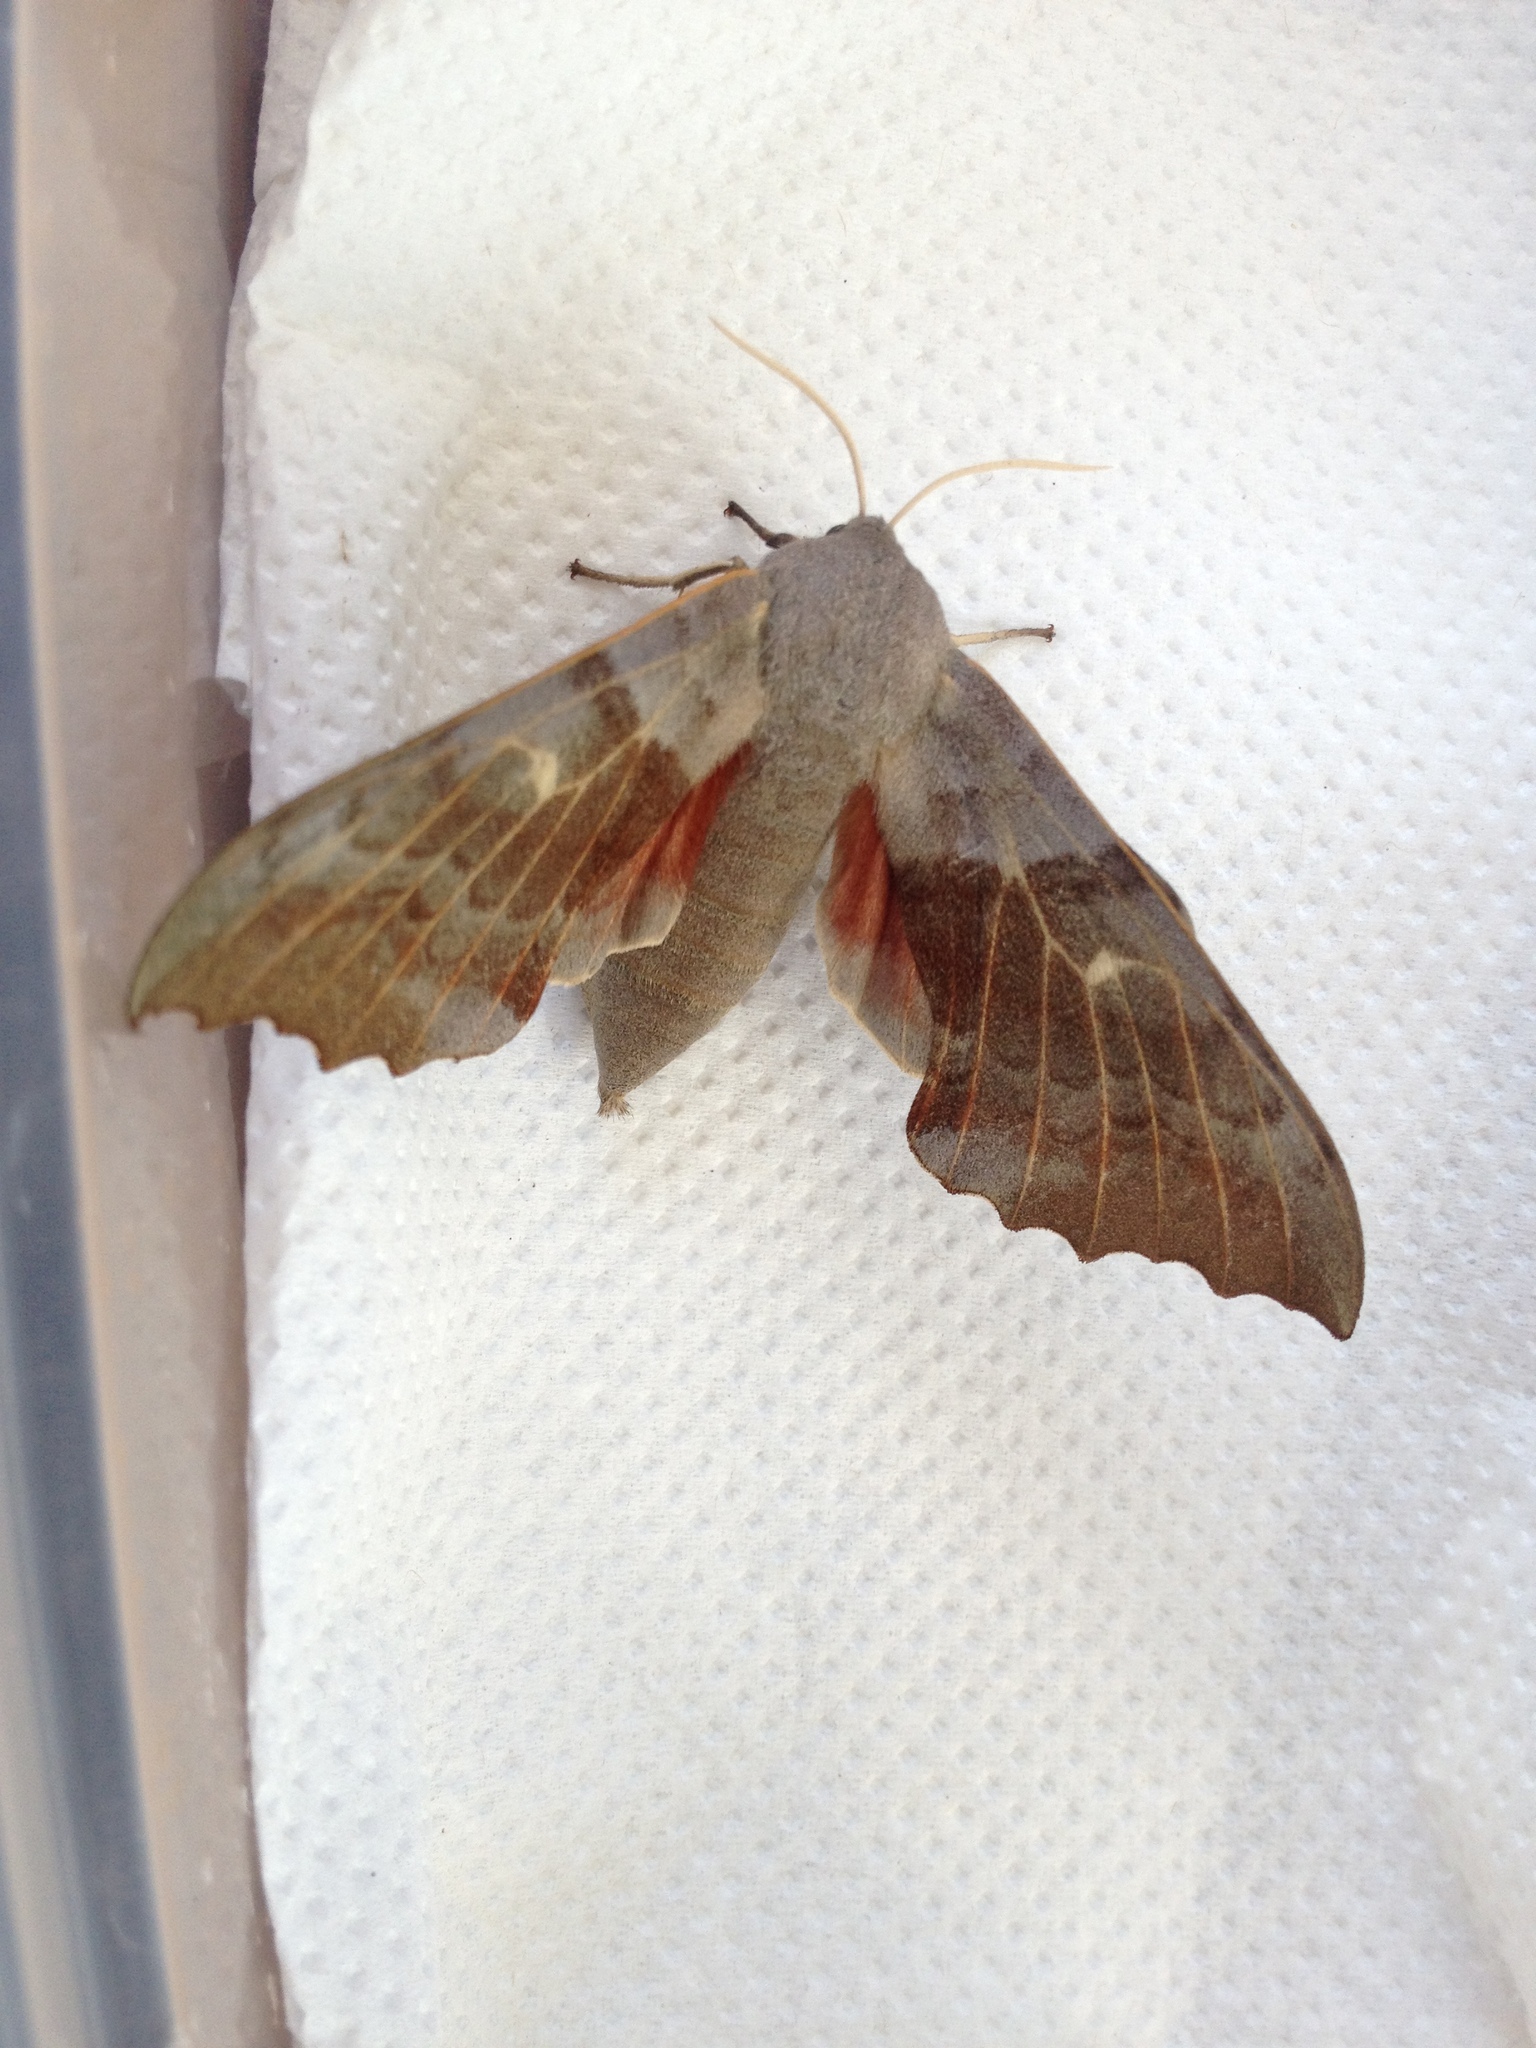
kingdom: Animalia
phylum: Arthropoda
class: Insecta
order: Lepidoptera
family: Sphingidae
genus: Laothoe
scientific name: Laothoe populi
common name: Poplar hawk-moth
